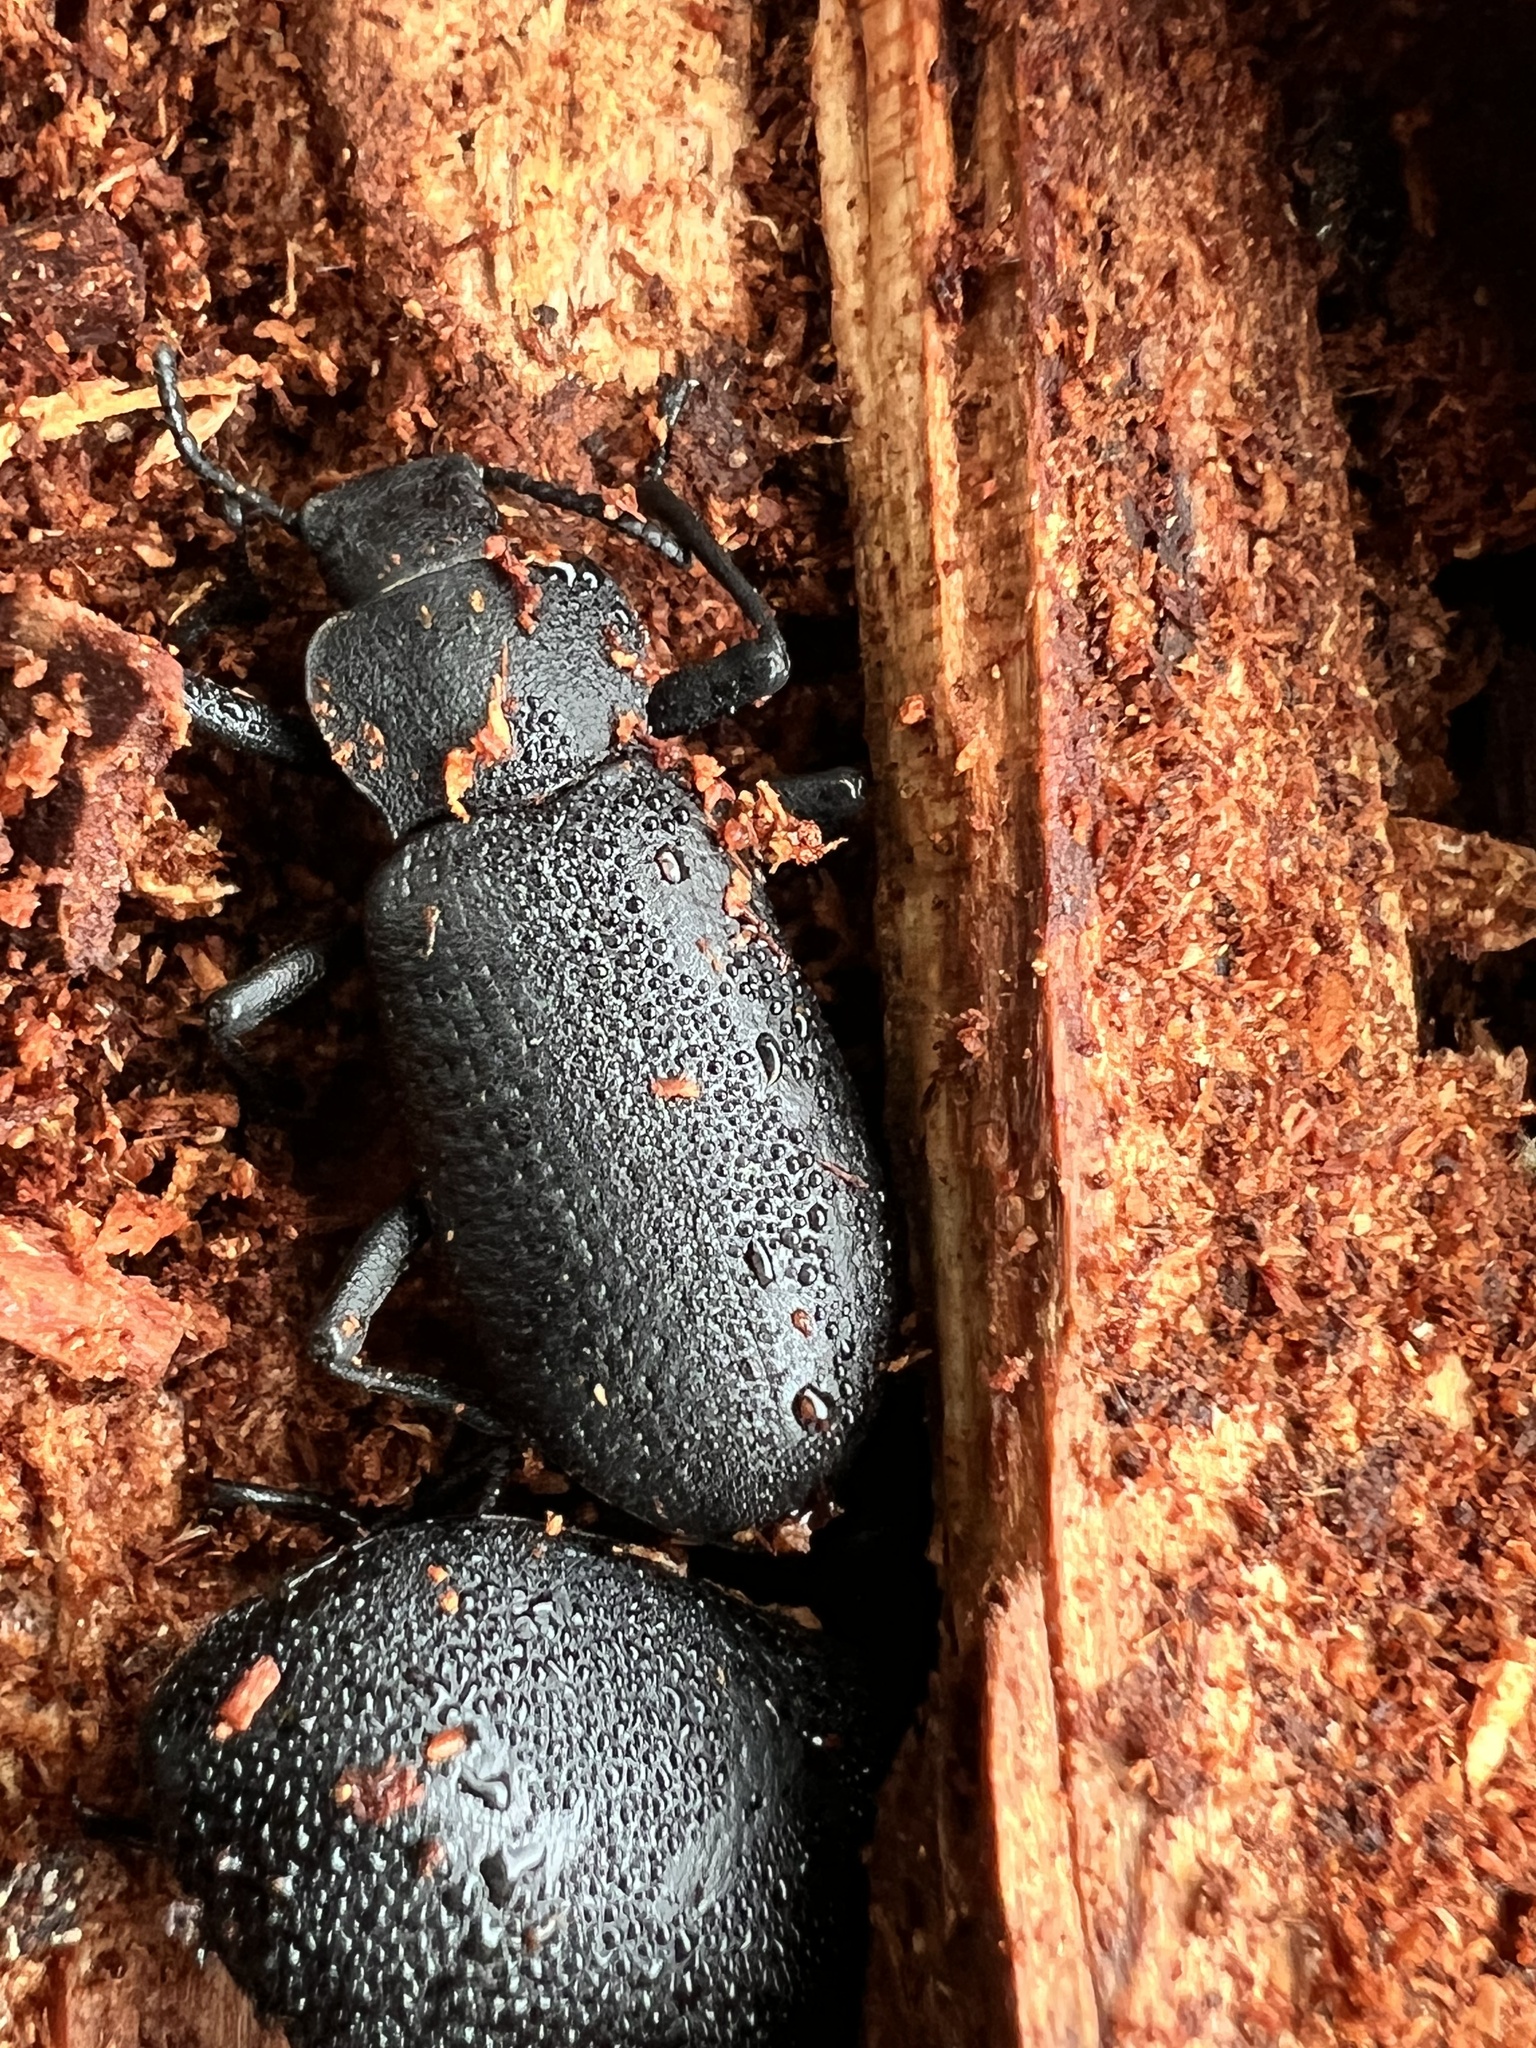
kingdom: Animalia
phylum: Arthropoda
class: Insecta
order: Coleoptera
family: Tenebrionidae
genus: Iphthiminus
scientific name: Iphthiminus serratus
